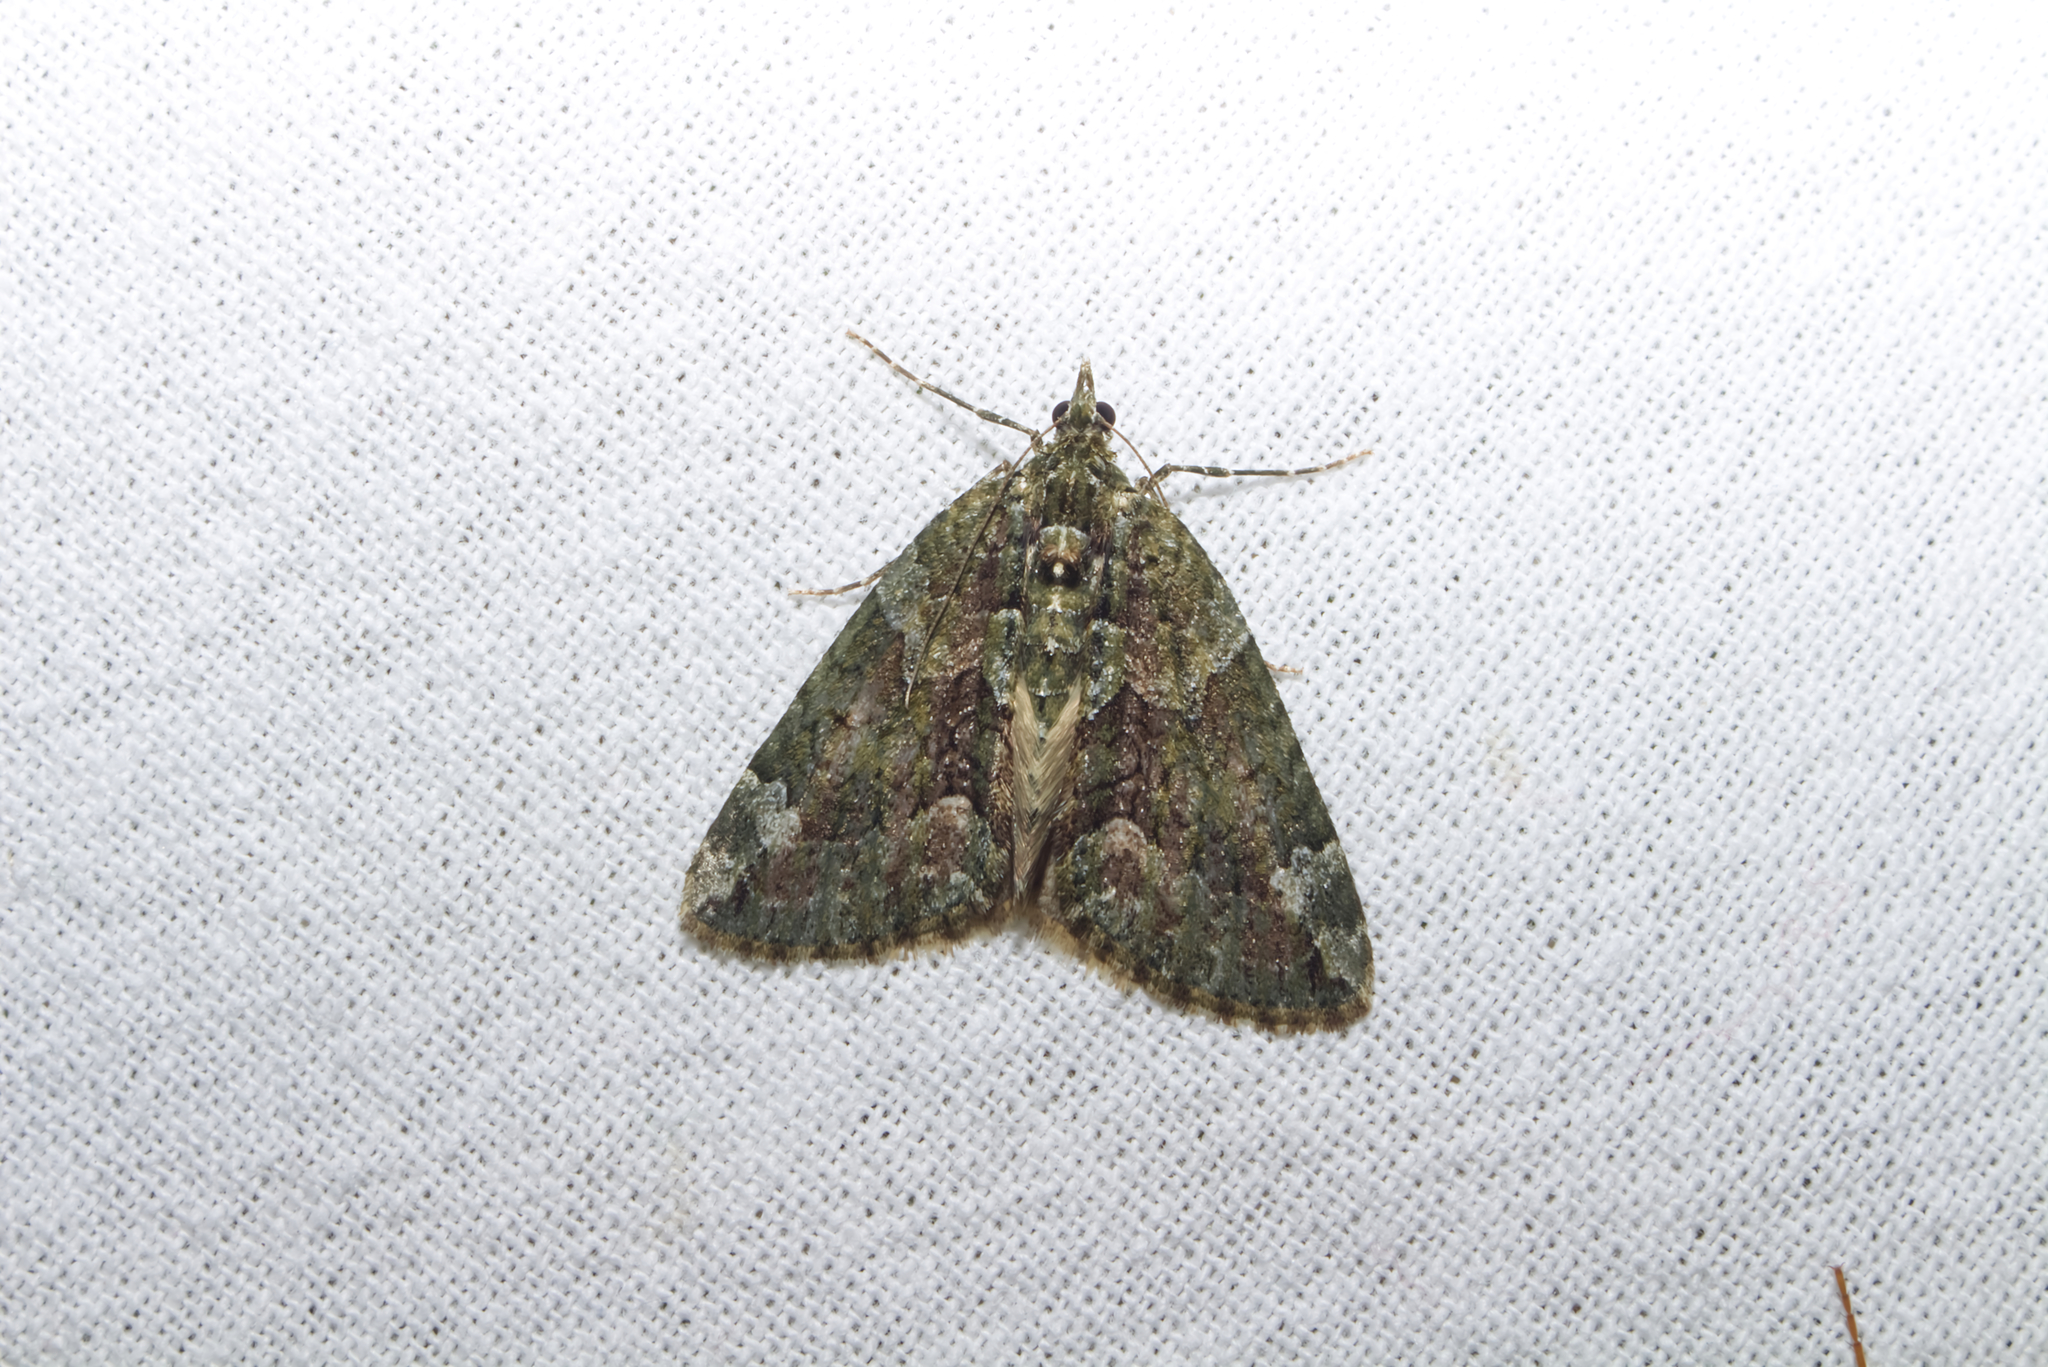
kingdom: Animalia
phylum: Arthropoda
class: Insecta
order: Lepidoptera
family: Geometridae
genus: Chloroclysta
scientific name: Chloroclysta siterata
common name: Red-green carpet
